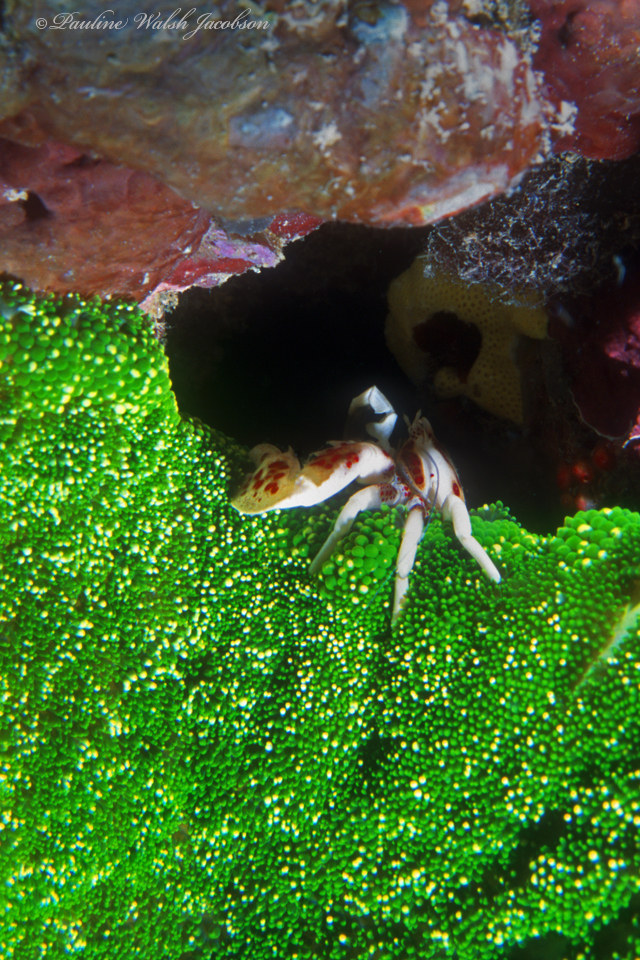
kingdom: Animalia
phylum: Arthropoda
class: Malacostraca
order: Decapoda
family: Porcellanidae
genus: Neopetrolisthes
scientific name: Neopetrolisthes maculatus
